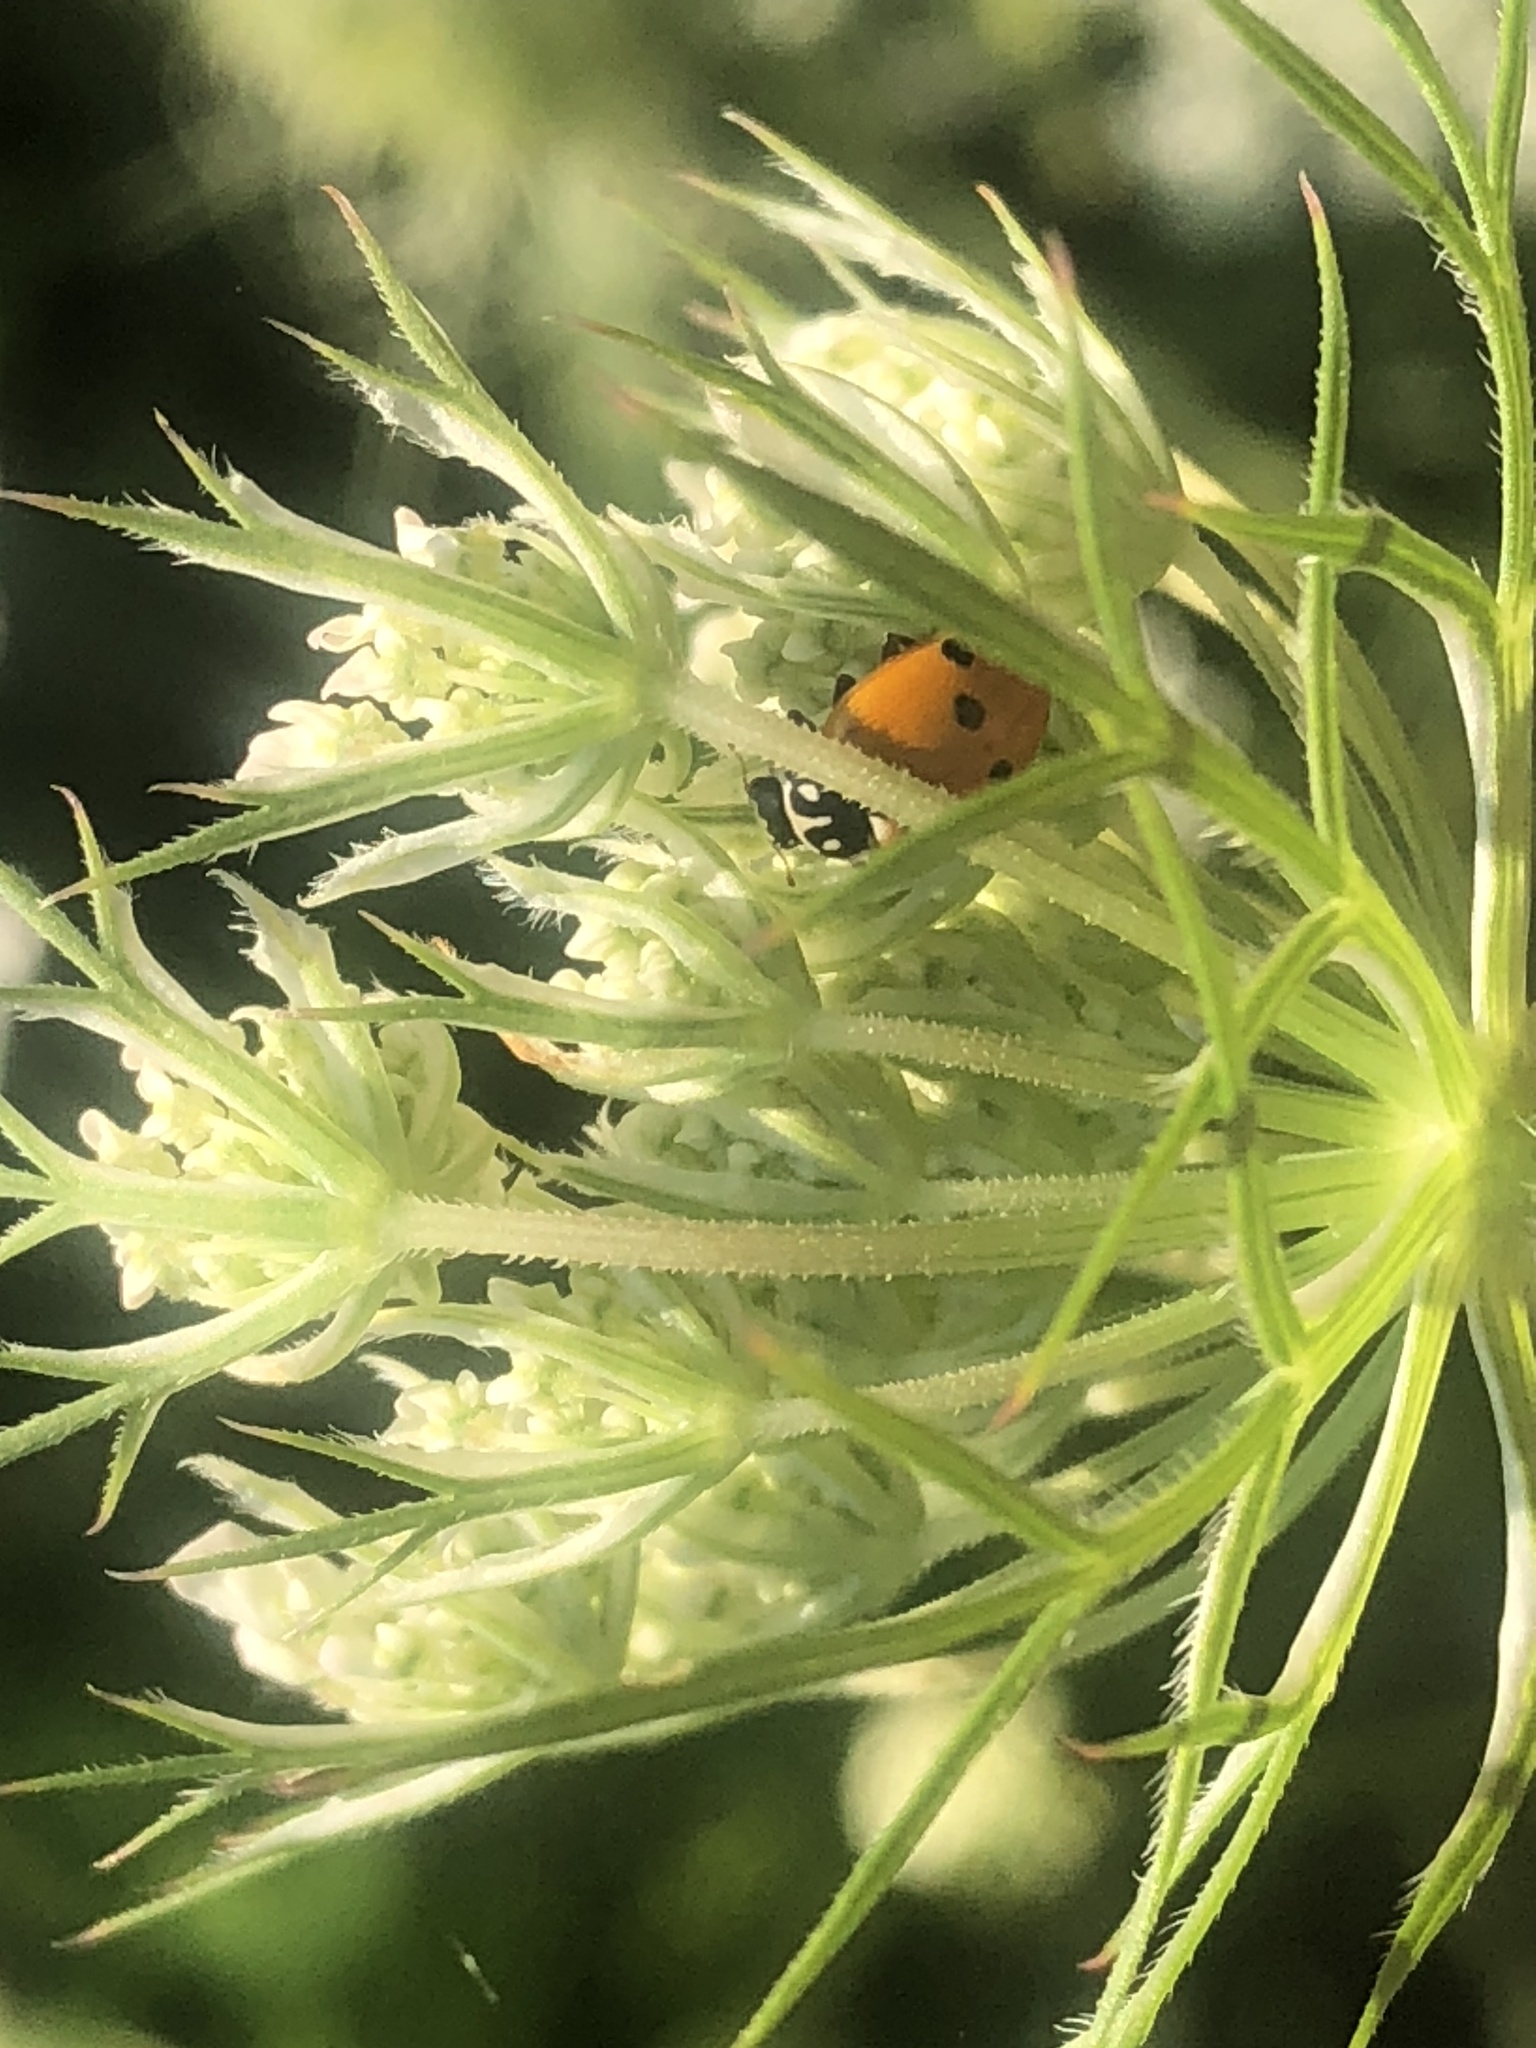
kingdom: Animalia
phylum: Arthropoda
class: Insecta
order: Coleoptera
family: Coccinellidae
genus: Hippodamia
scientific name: Hippodamia variegata
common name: Ladybird beetle
